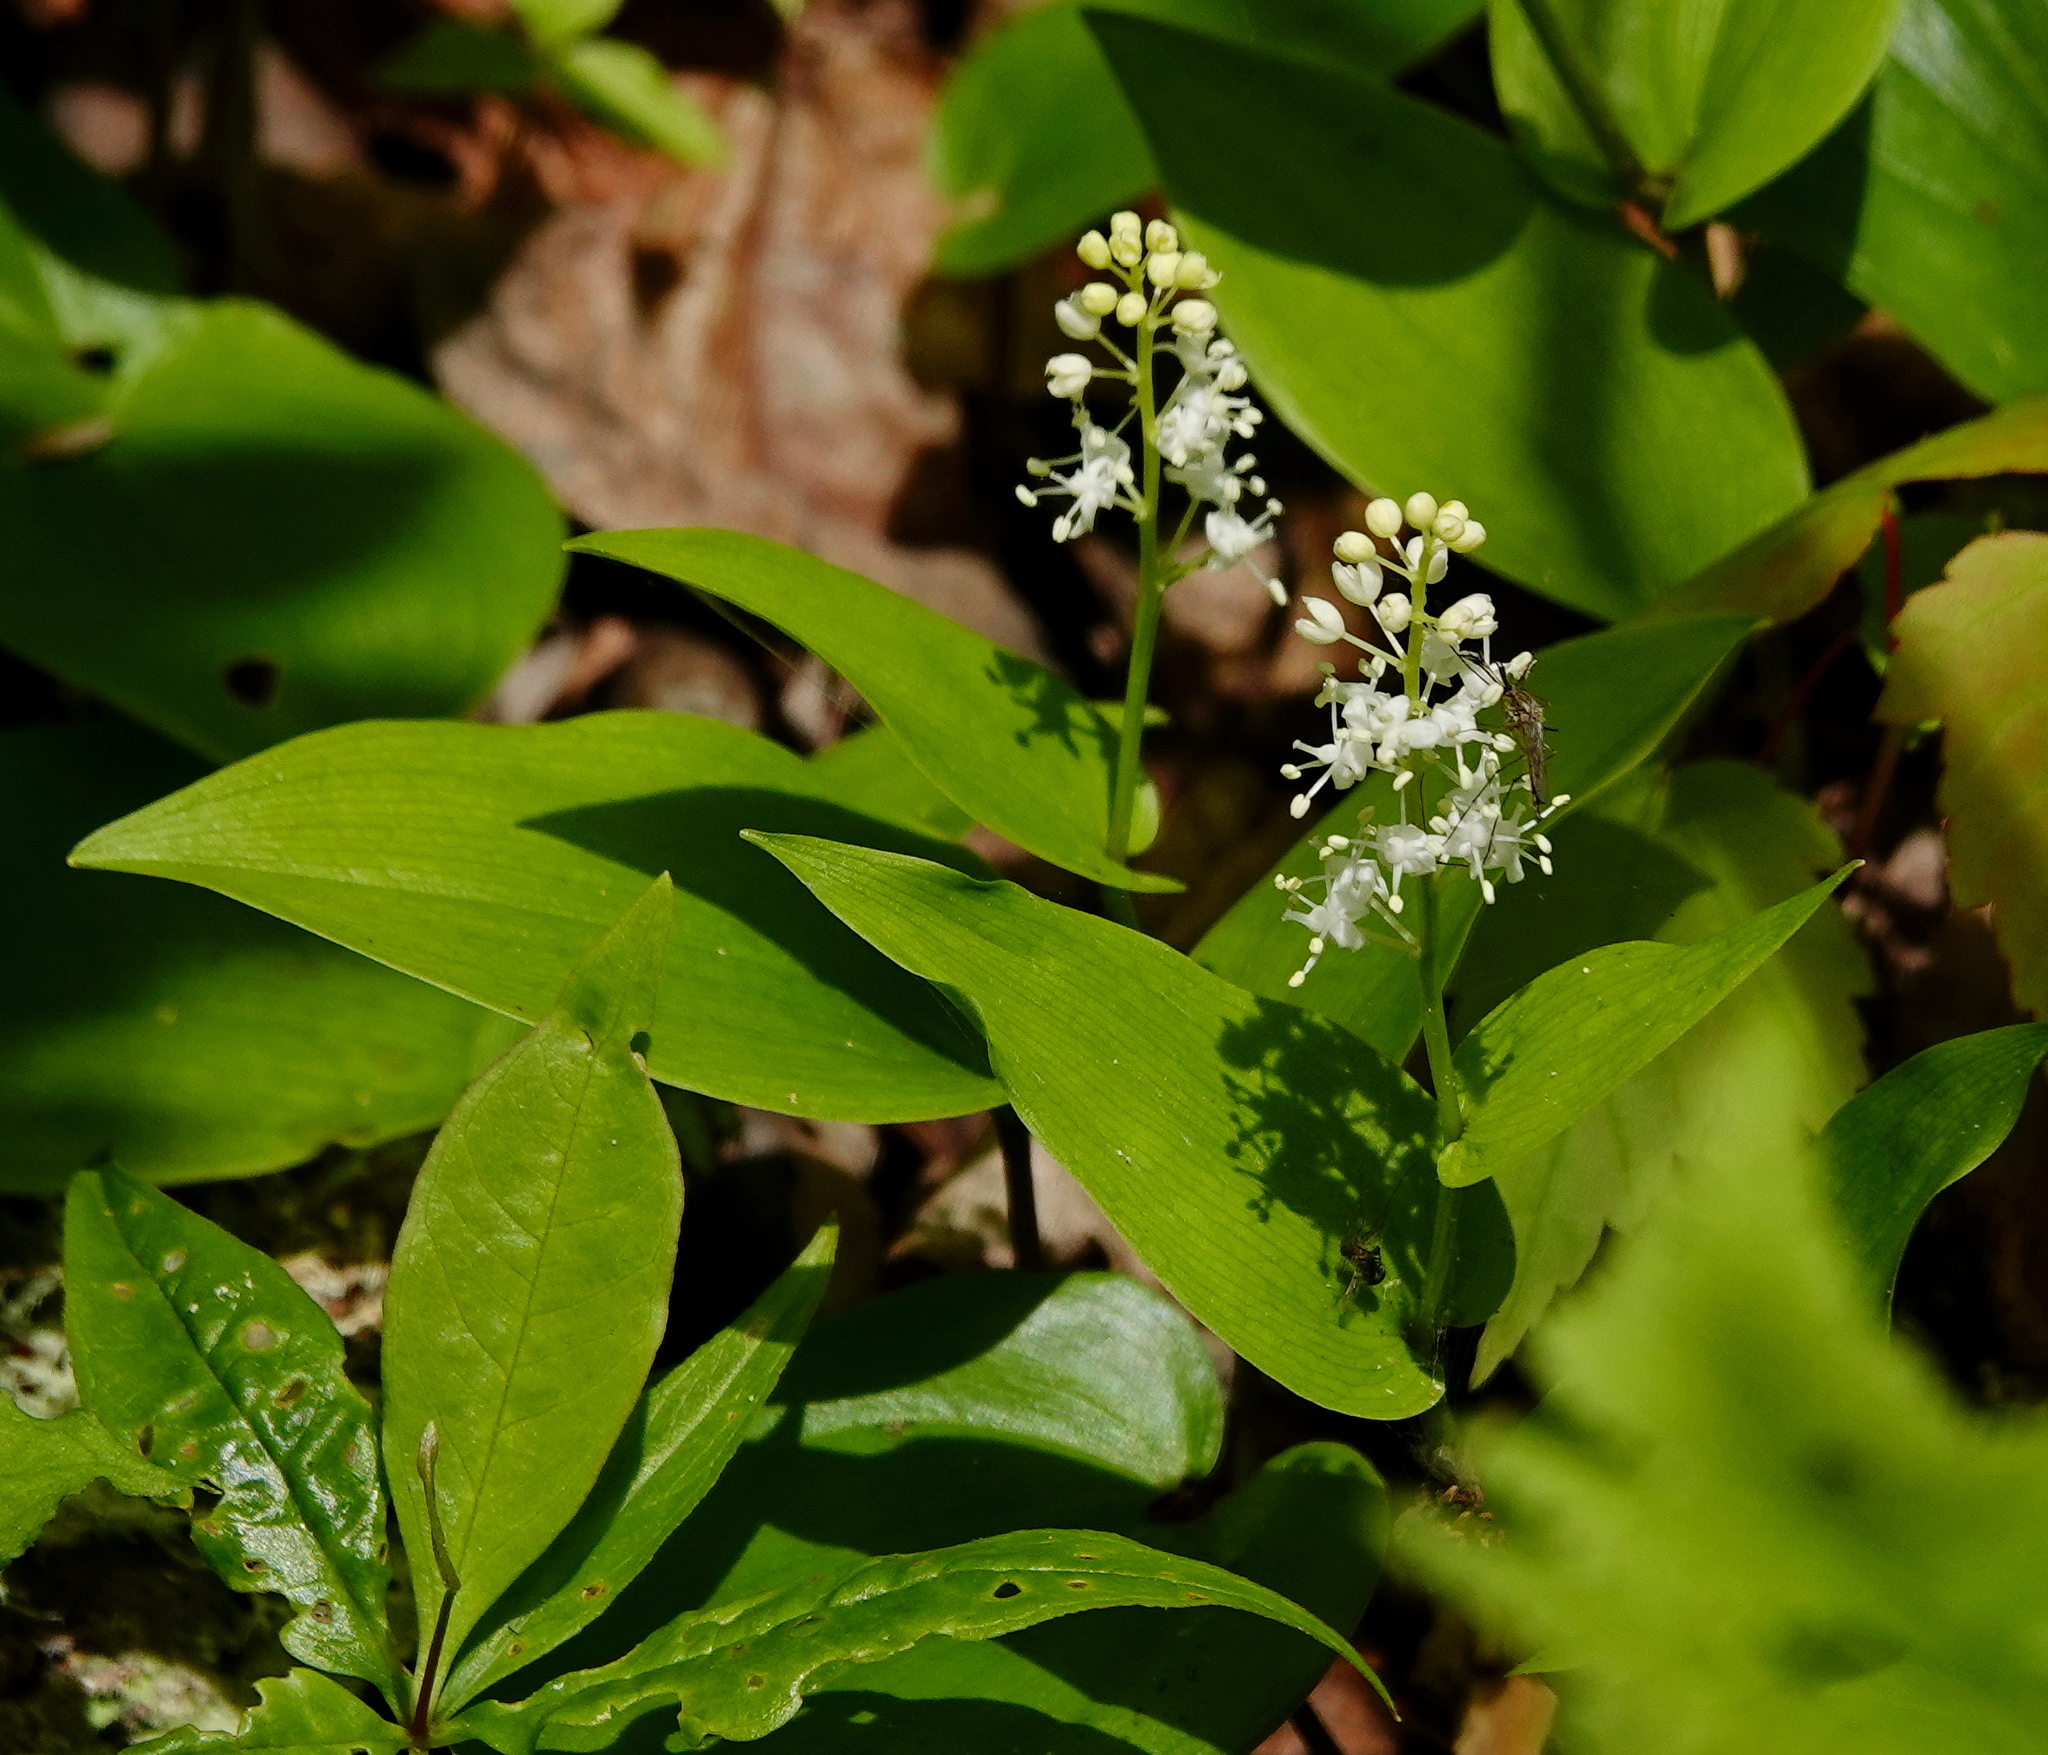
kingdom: Plantae
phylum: Tracheophyta
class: Liliopsida
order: Asparagales
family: Asparagaceae
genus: Maianthemum
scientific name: Maianthemum canadense
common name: False lily-of-the-valley
